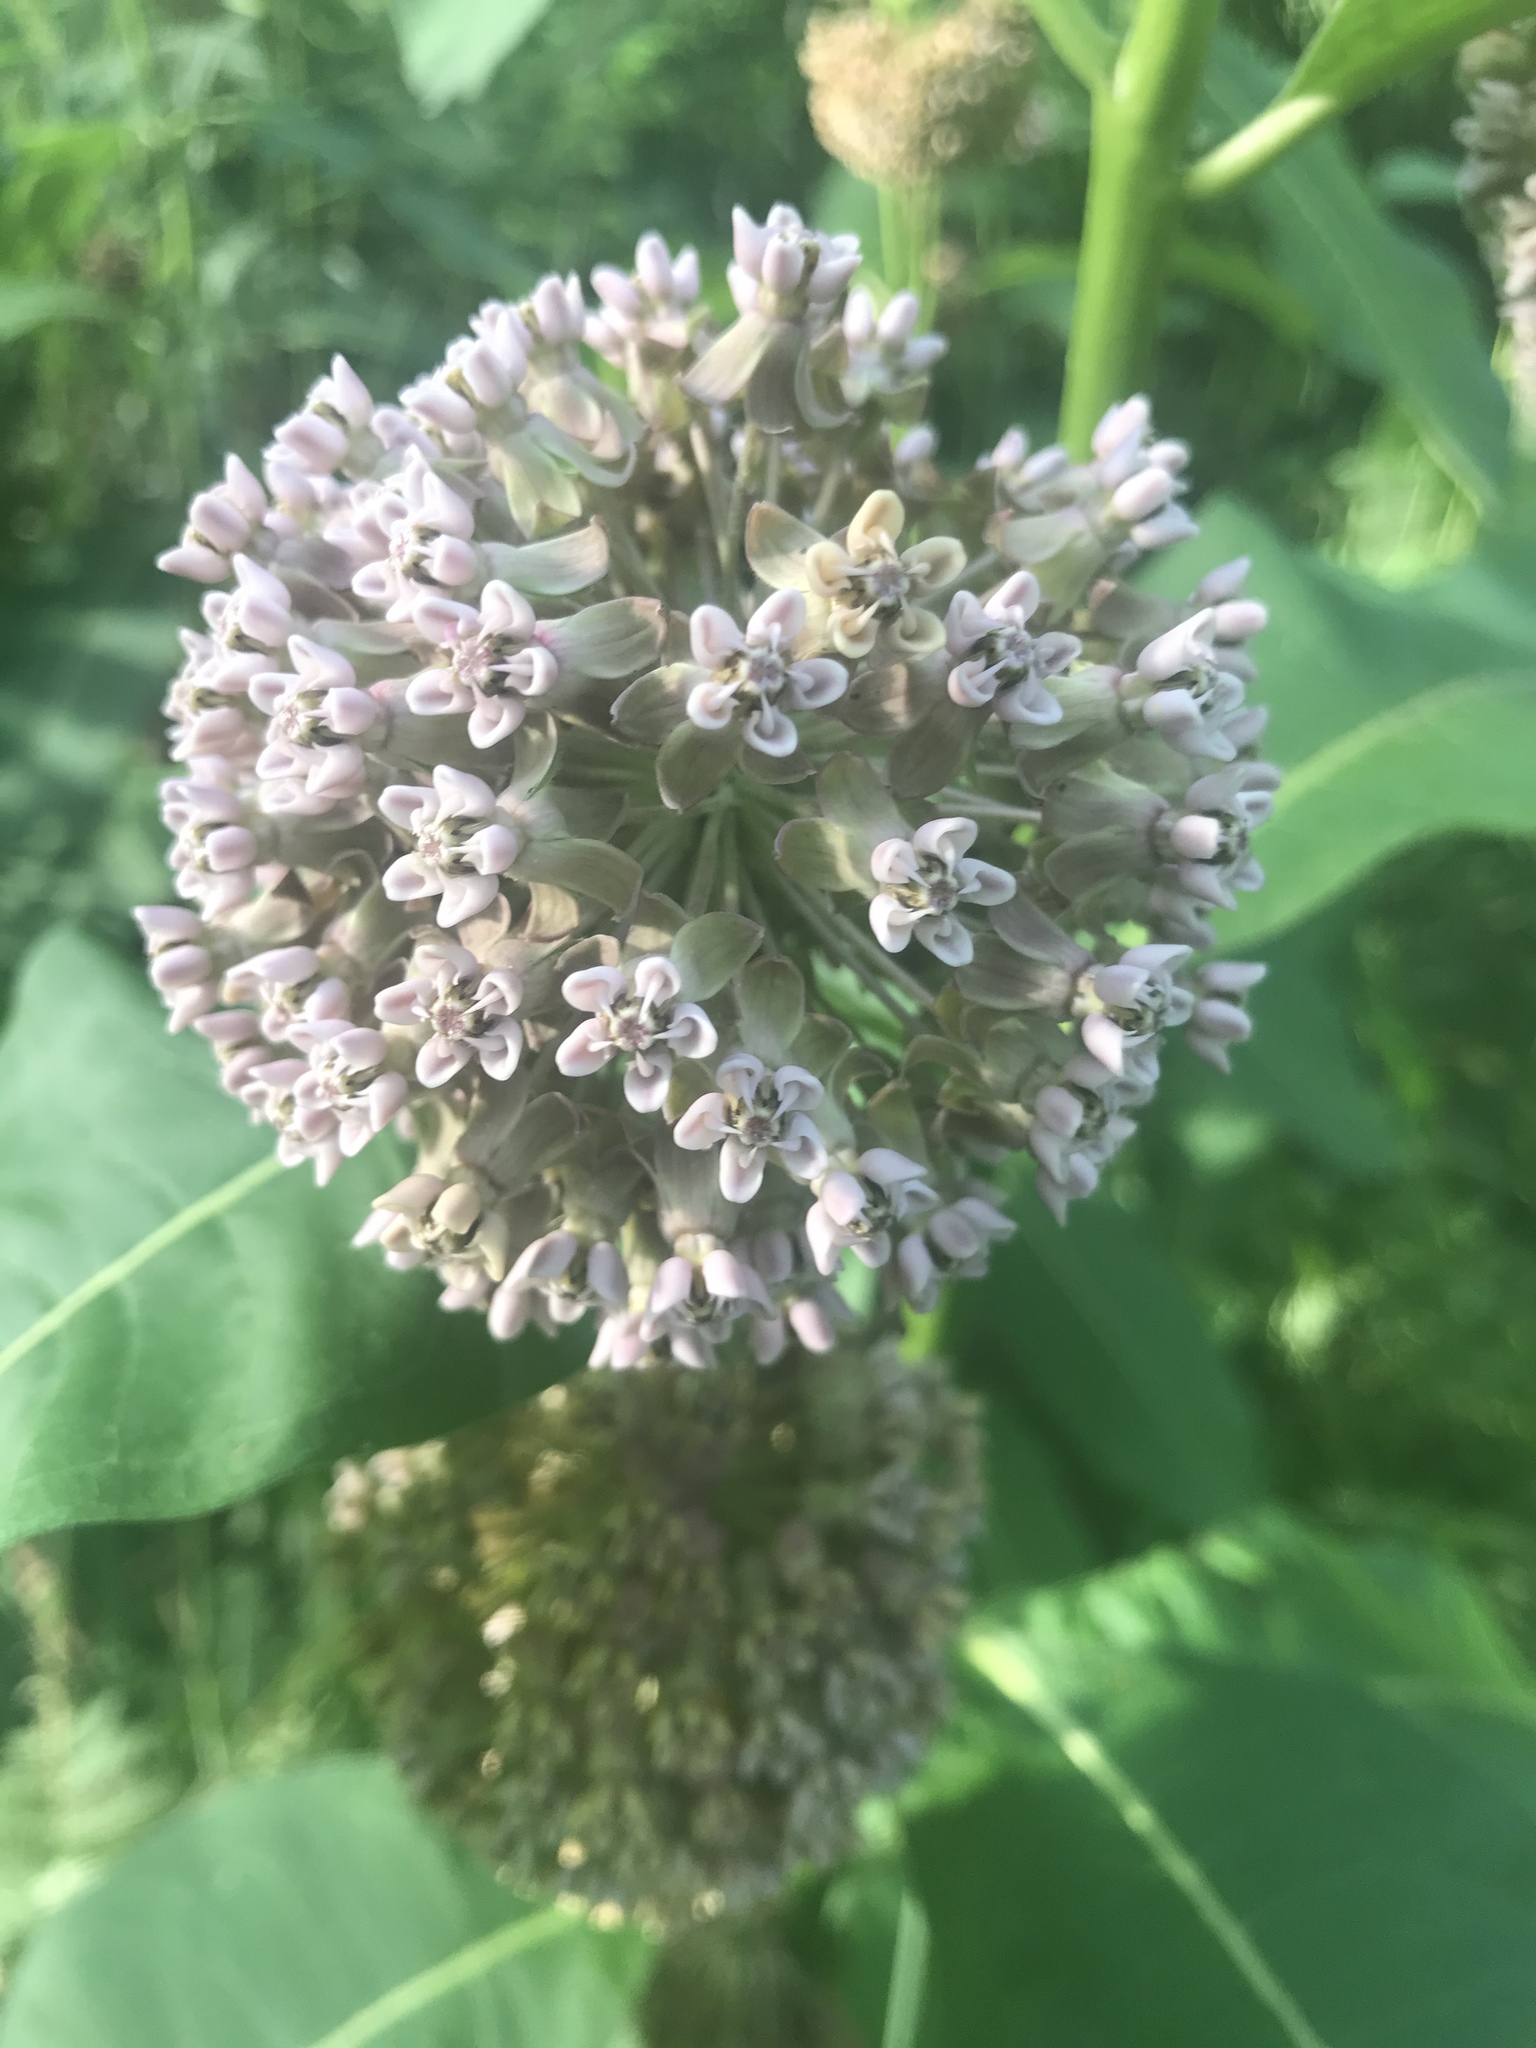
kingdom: Plantae
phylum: Tracheophyta
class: Magnoliopsida
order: Gentianales
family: Apocynaceae
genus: Asclepias
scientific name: Asclepias syriaca
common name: Common milkweed
